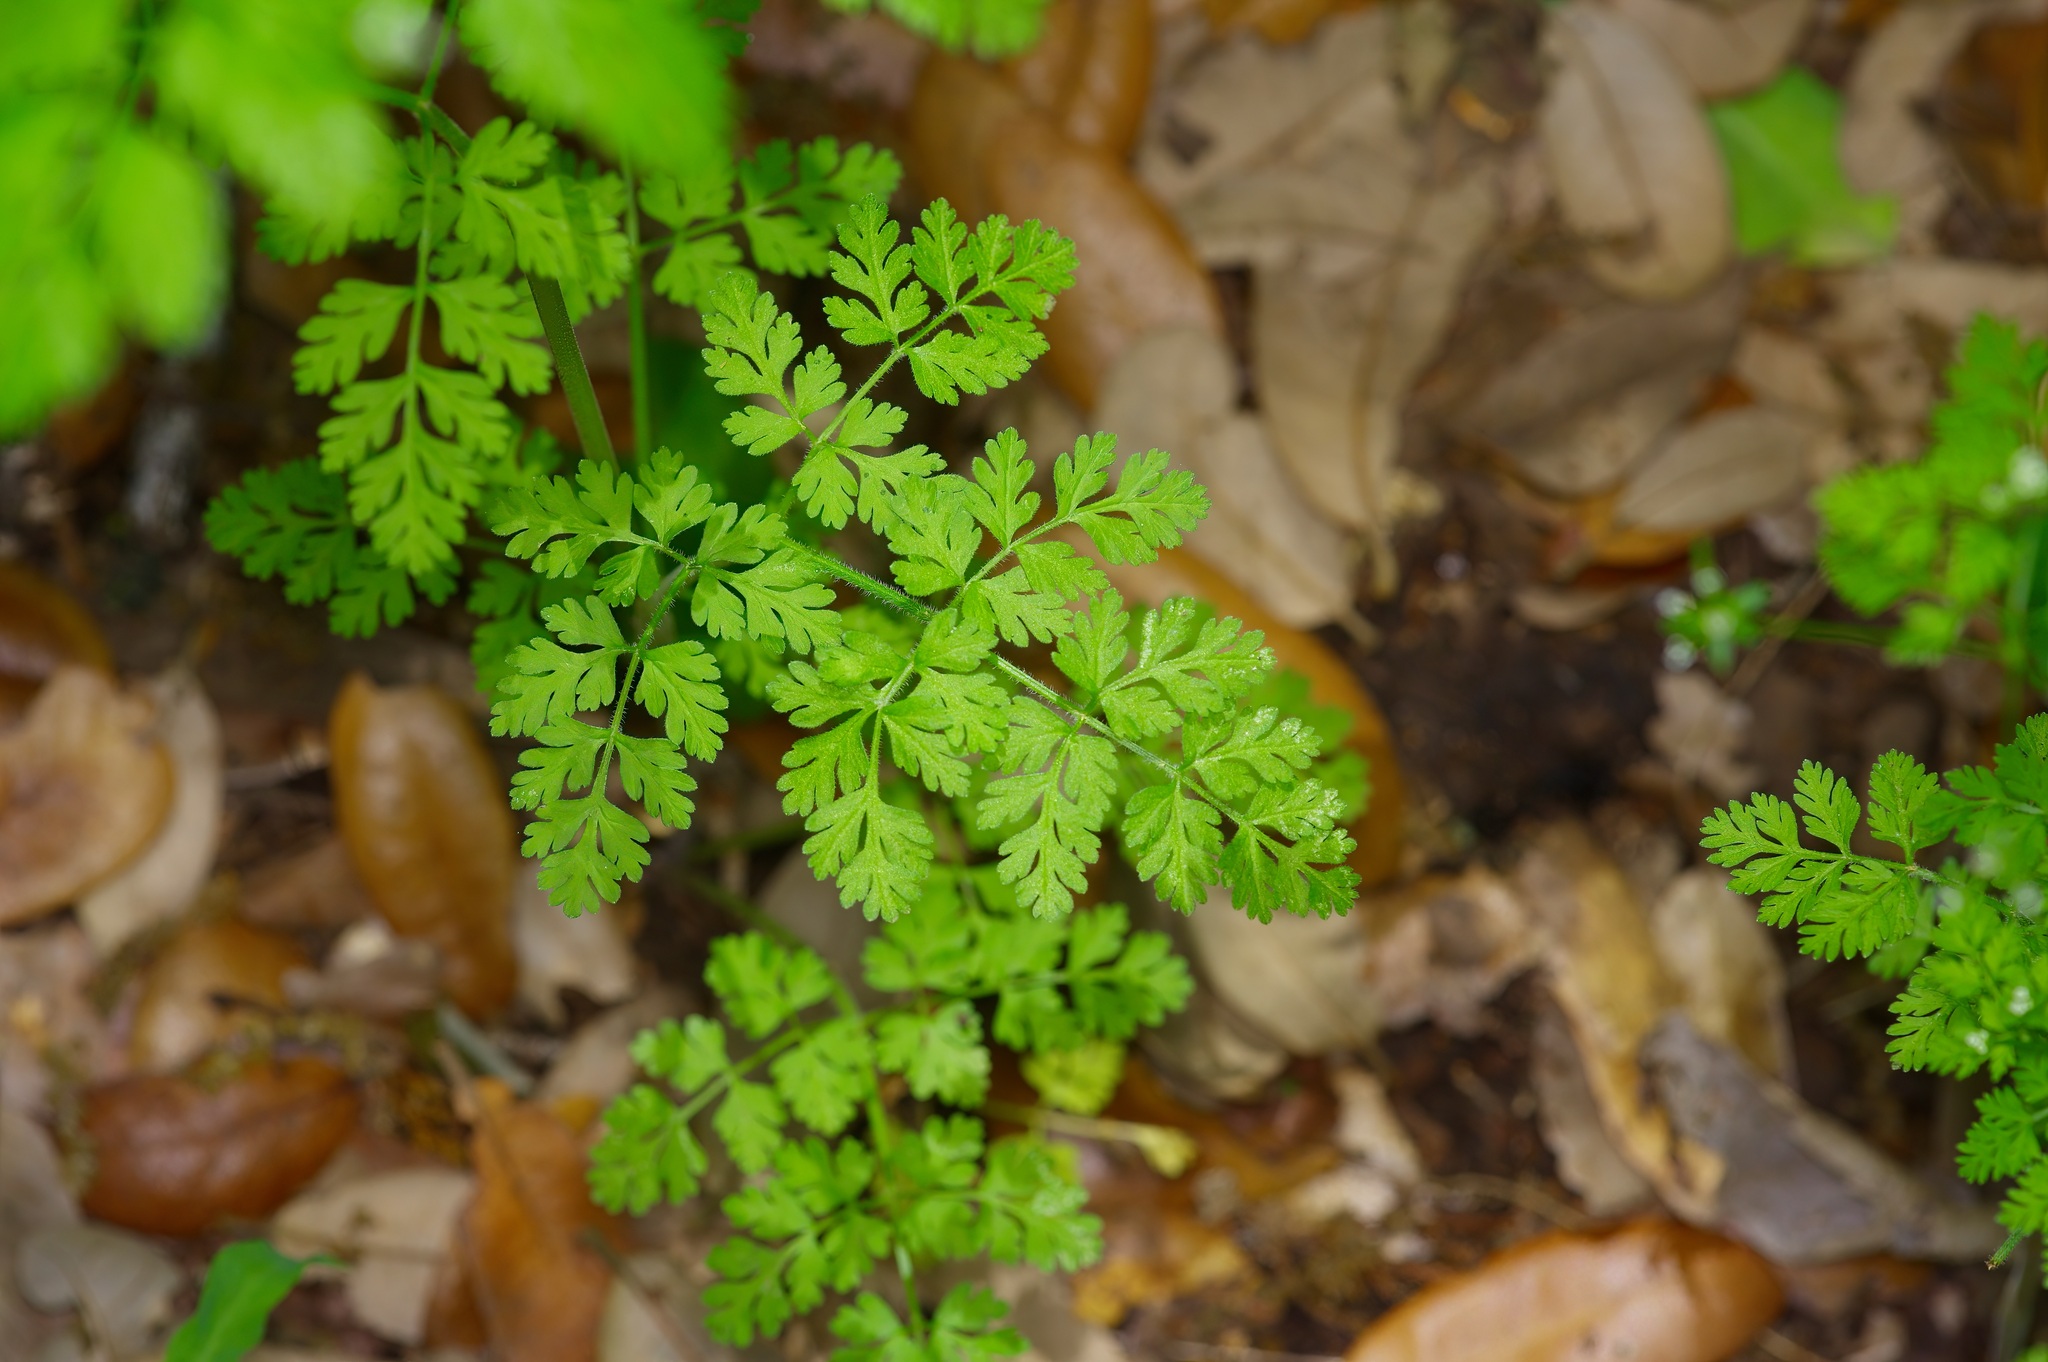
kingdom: Plantae
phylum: Tracheophyta
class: Magnoliopsida
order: Apiales
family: Apiaceae
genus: Chaerophyllum
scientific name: Chaerophyllum tainturieri
